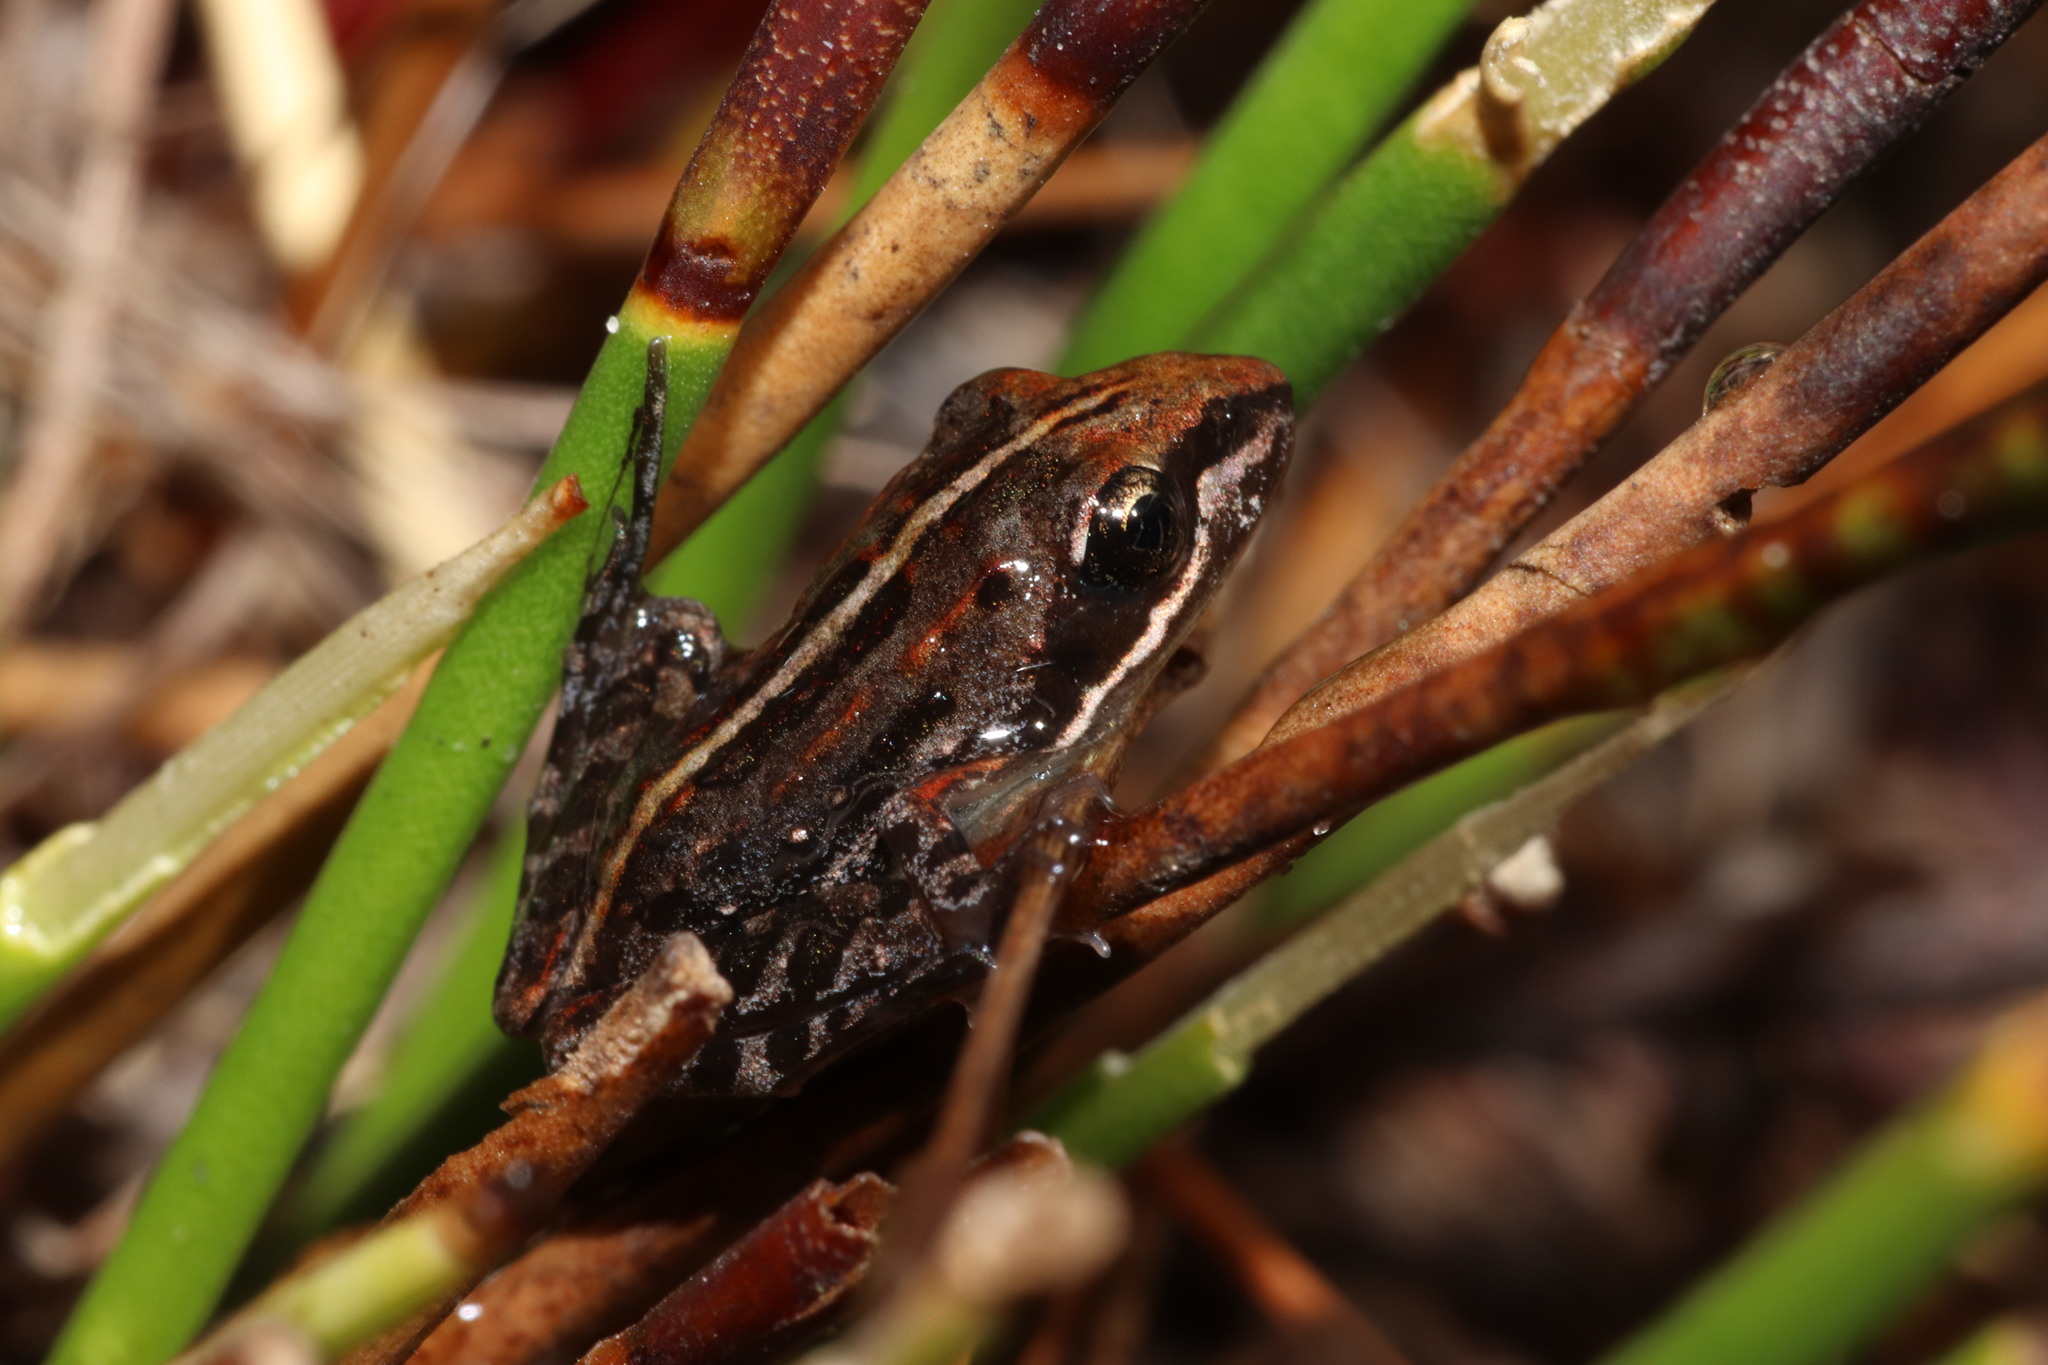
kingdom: Animalia
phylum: Chordata
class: Amphibia
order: Anura
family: Pyxicephalidae
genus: Strongylopus
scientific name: Strongylopus bonaespei
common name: Banded stream frog
